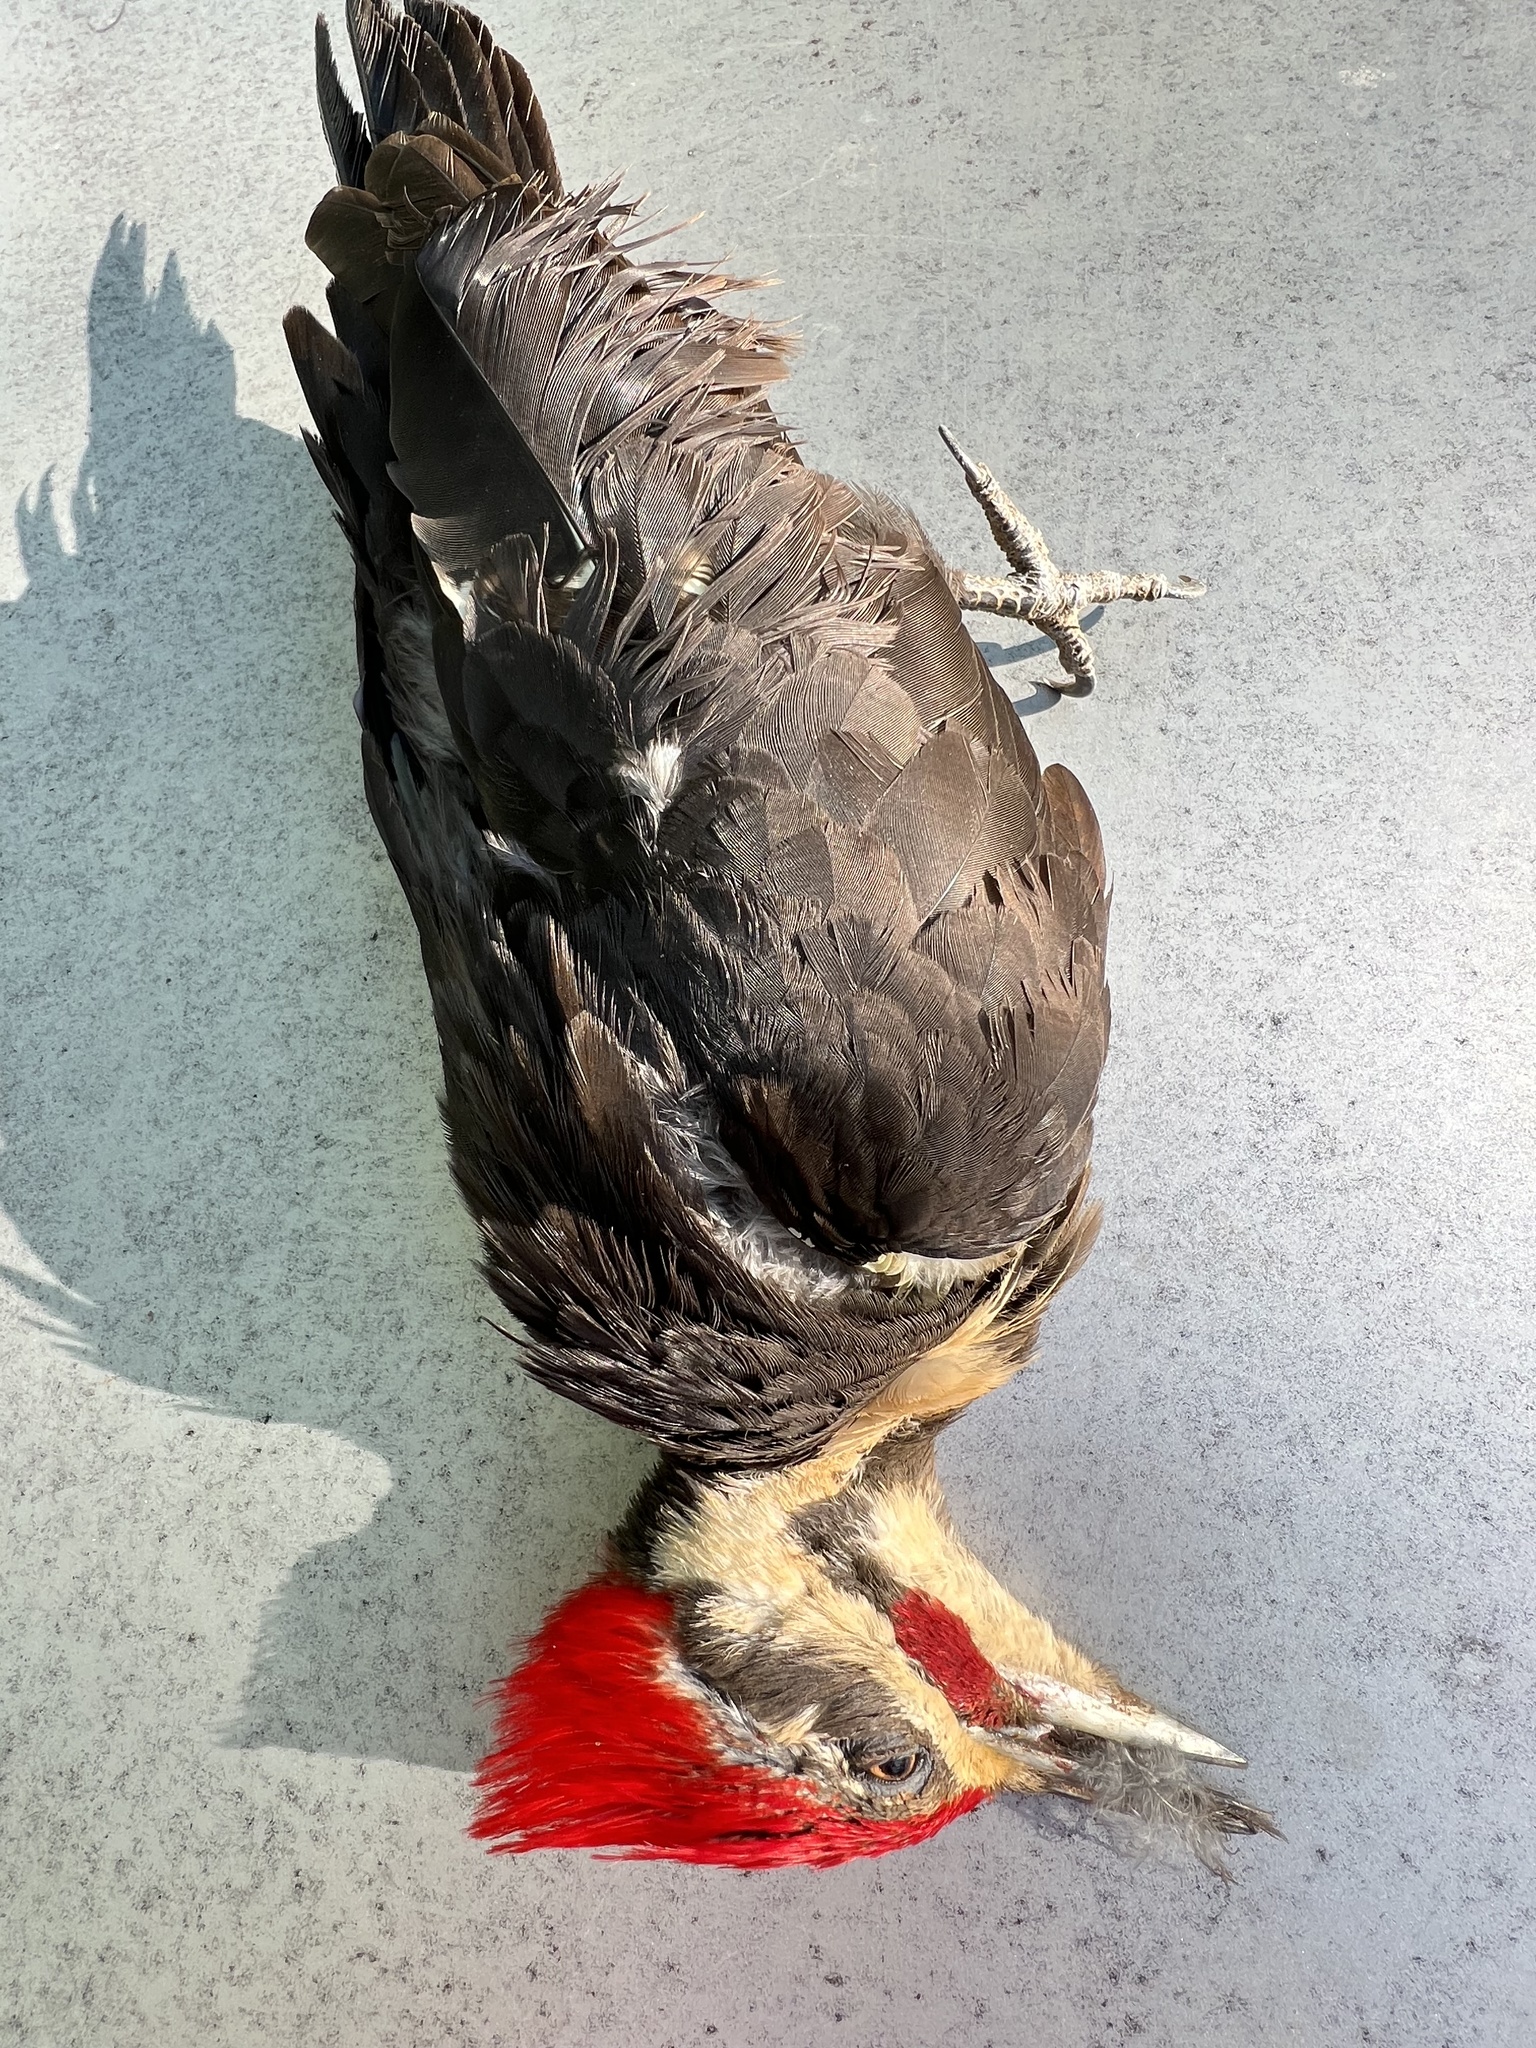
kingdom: Animalia
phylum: Chordata
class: Aves
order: Piciformes
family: Picidae
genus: Dryocopus
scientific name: Dryocopus pileatus
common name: Pileated woodpecker
